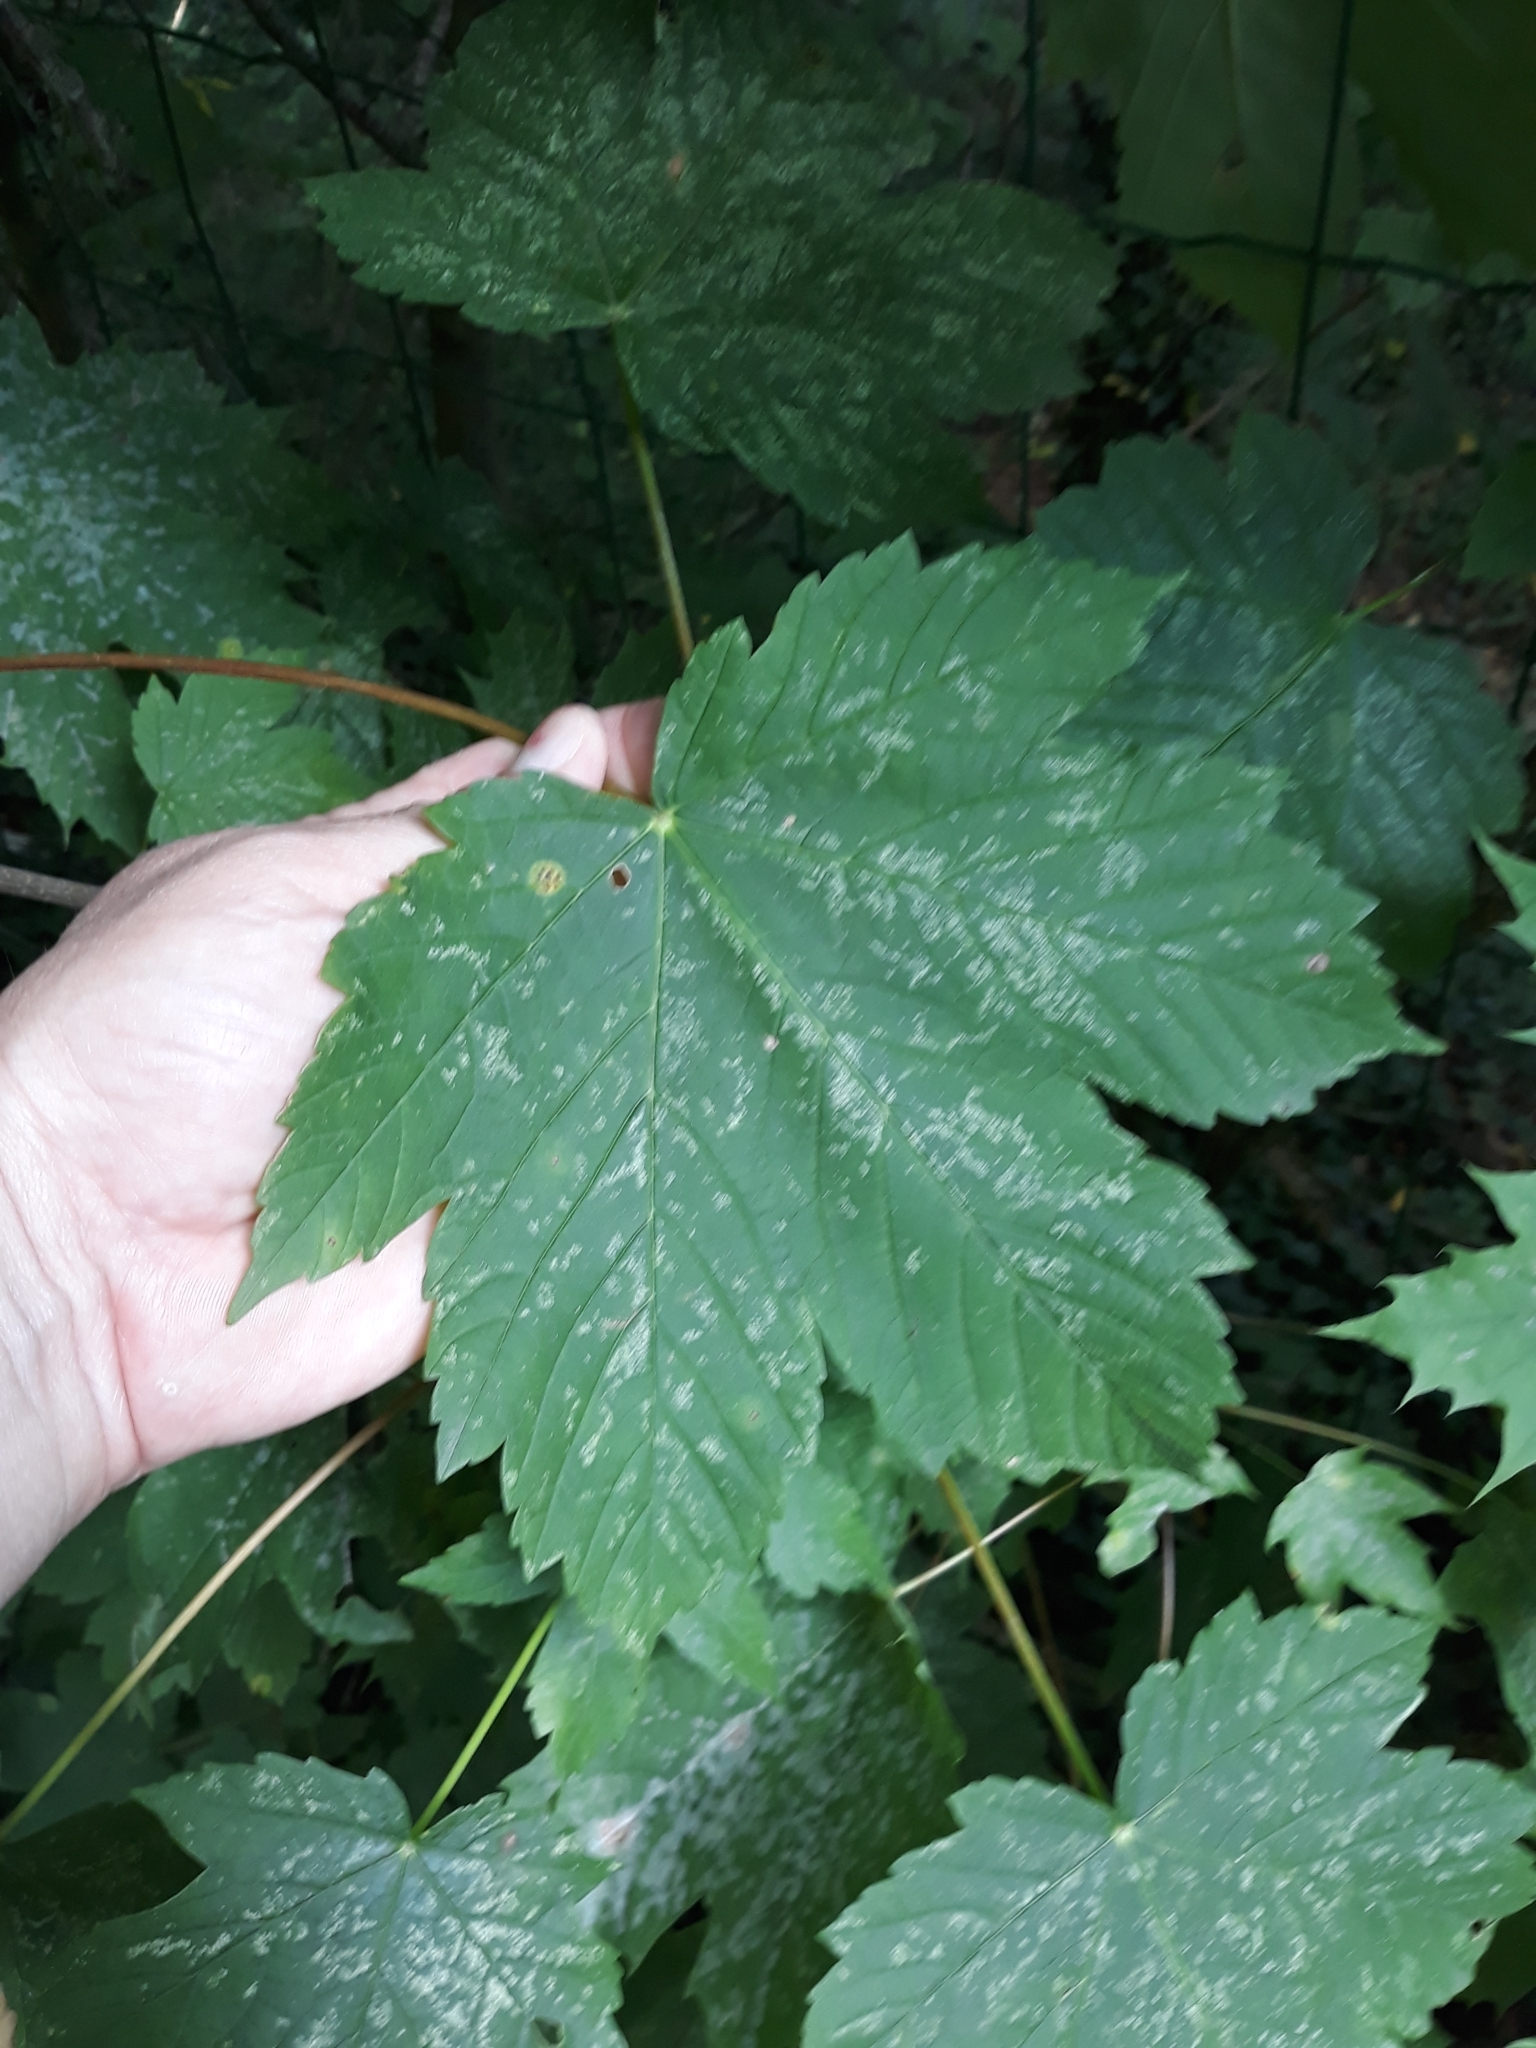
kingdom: Plantae
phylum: Tracheophyta
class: Magnoliopsida
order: Sapindales
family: Sapindaceae
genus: Acer
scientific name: Acer pseudoplatanus
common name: Sycamore
